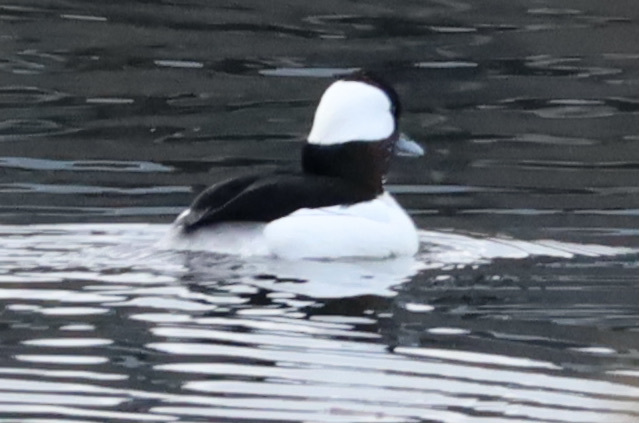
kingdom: Animalia
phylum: Chordata
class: Aves
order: Anseriformes
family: Anatidae
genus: Bucephala
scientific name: Bucephala albeola
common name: Bufflehead
